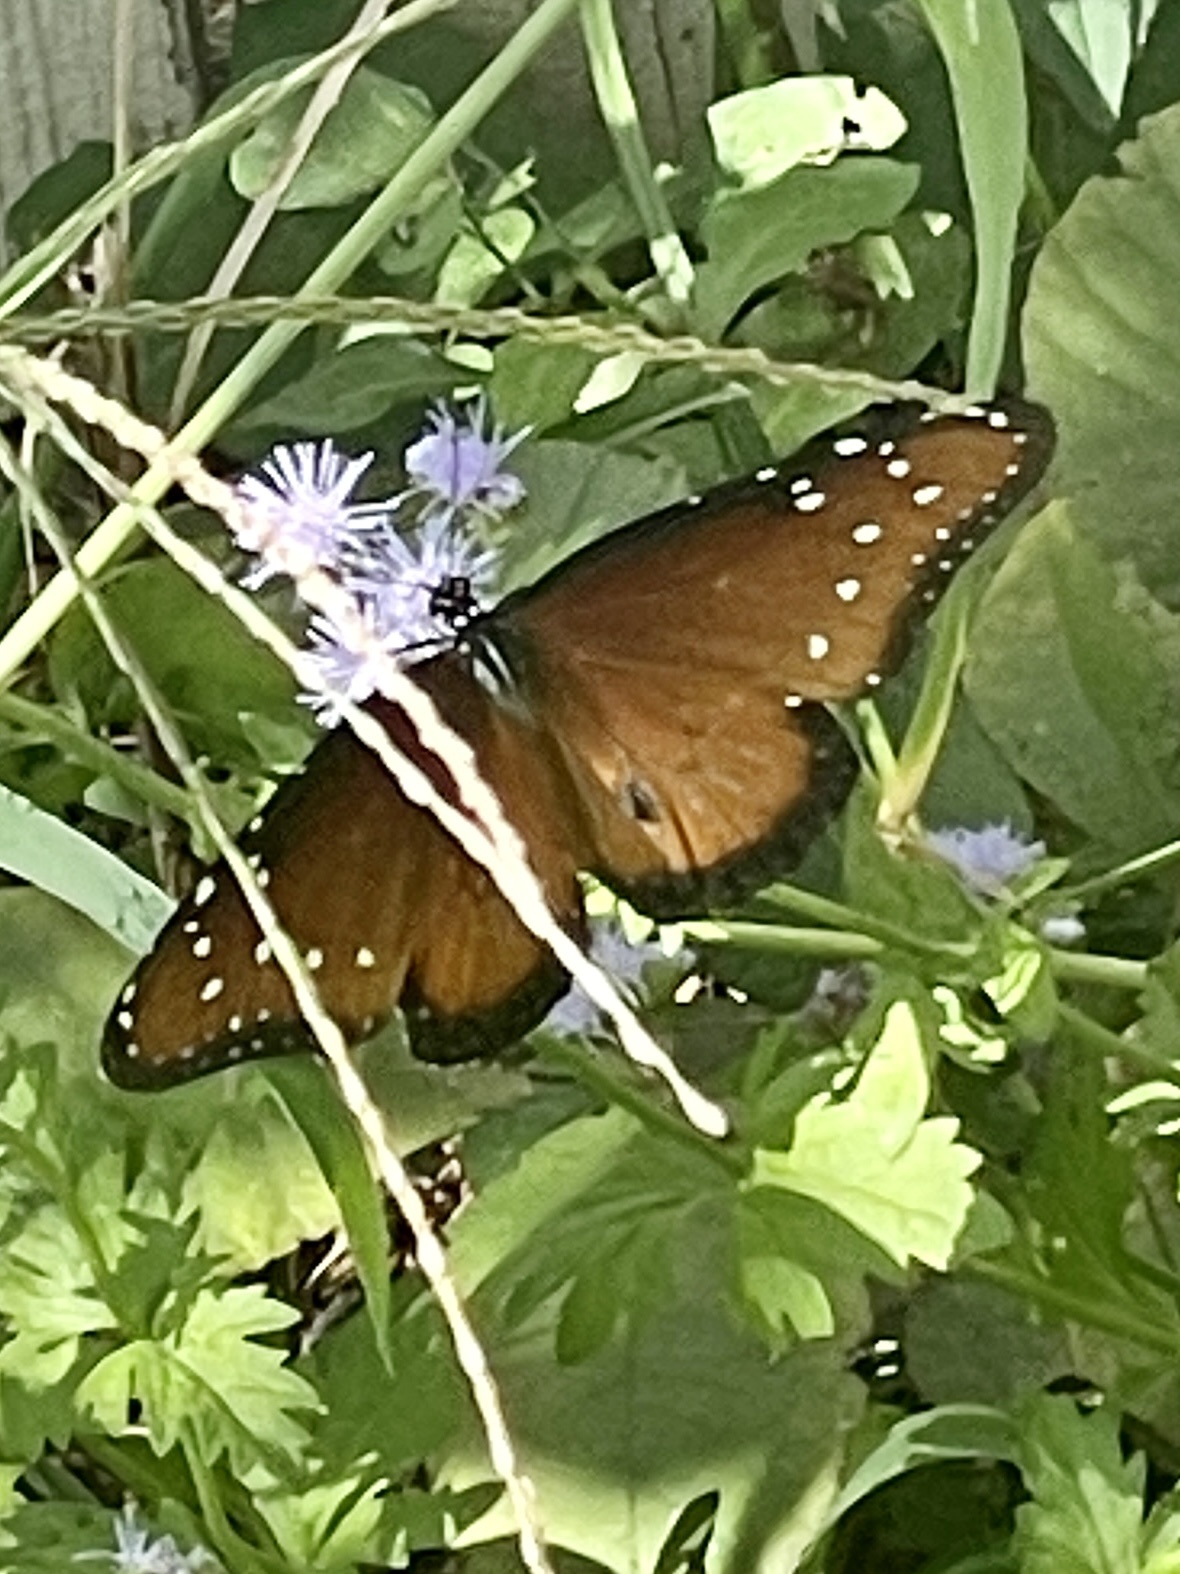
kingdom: Animalia
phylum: Arthropoda
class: Insecta
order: Lepidoptera
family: Nymphalidae
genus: Danaus
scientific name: Danaus gilippus
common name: Queen
